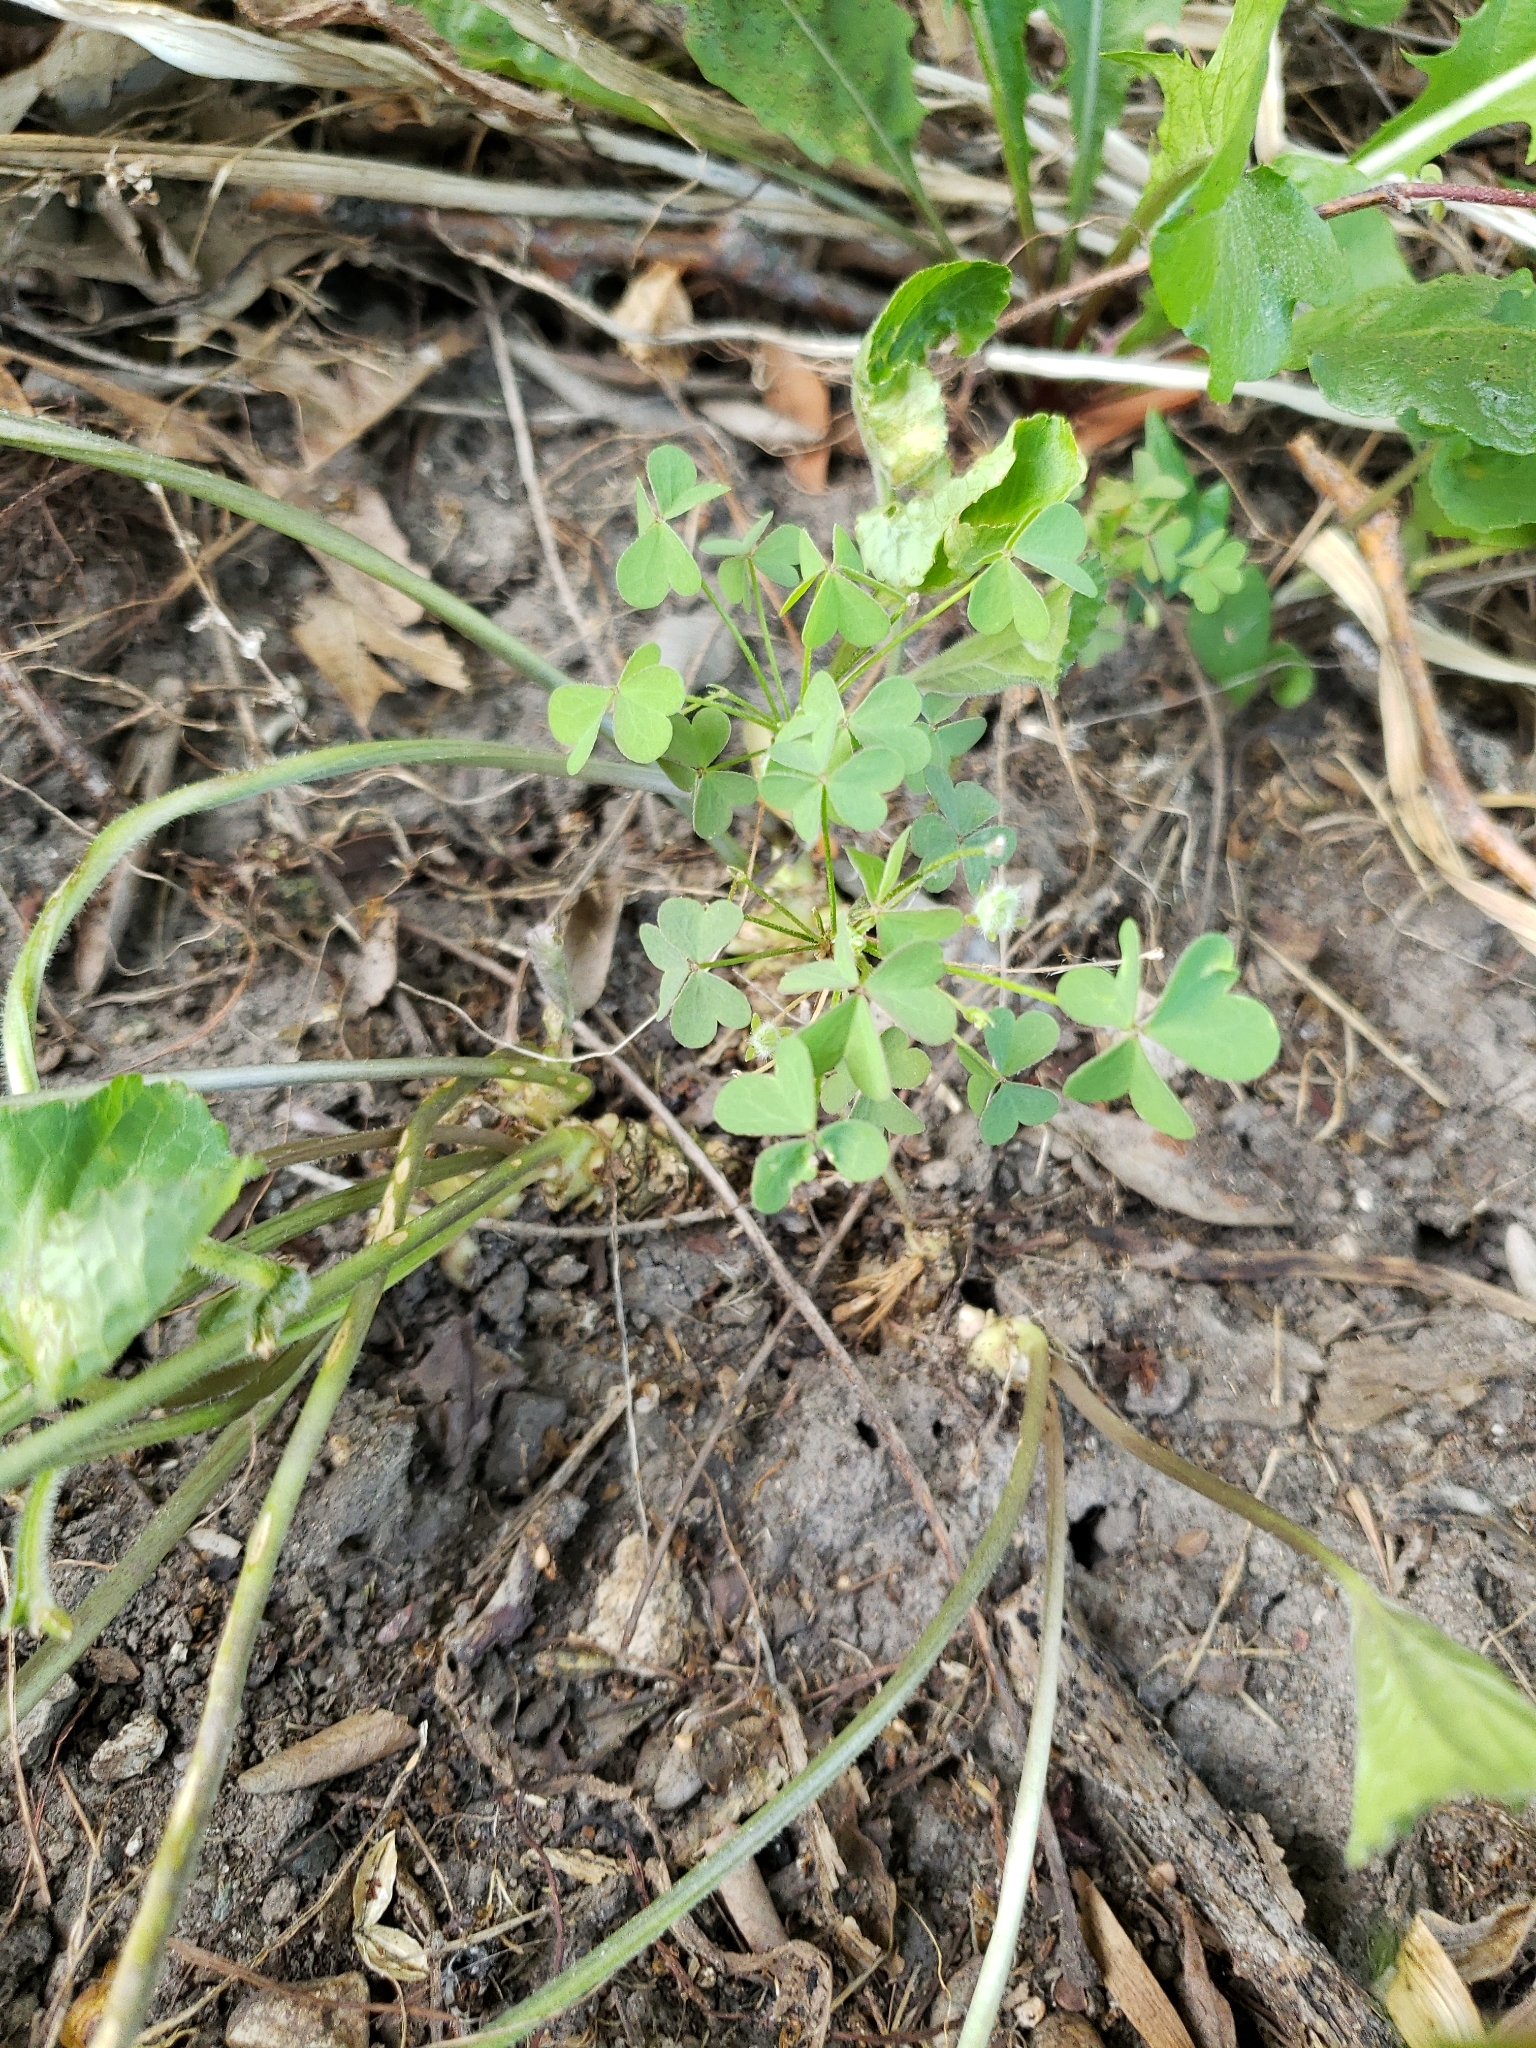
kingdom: Plantae
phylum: Tracheophyta
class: Magnoliopsida
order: Oxalidales
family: Oxalidaceae
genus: Oxalis
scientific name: Oxalis dillenii
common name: Sussex yellow-sorrel
